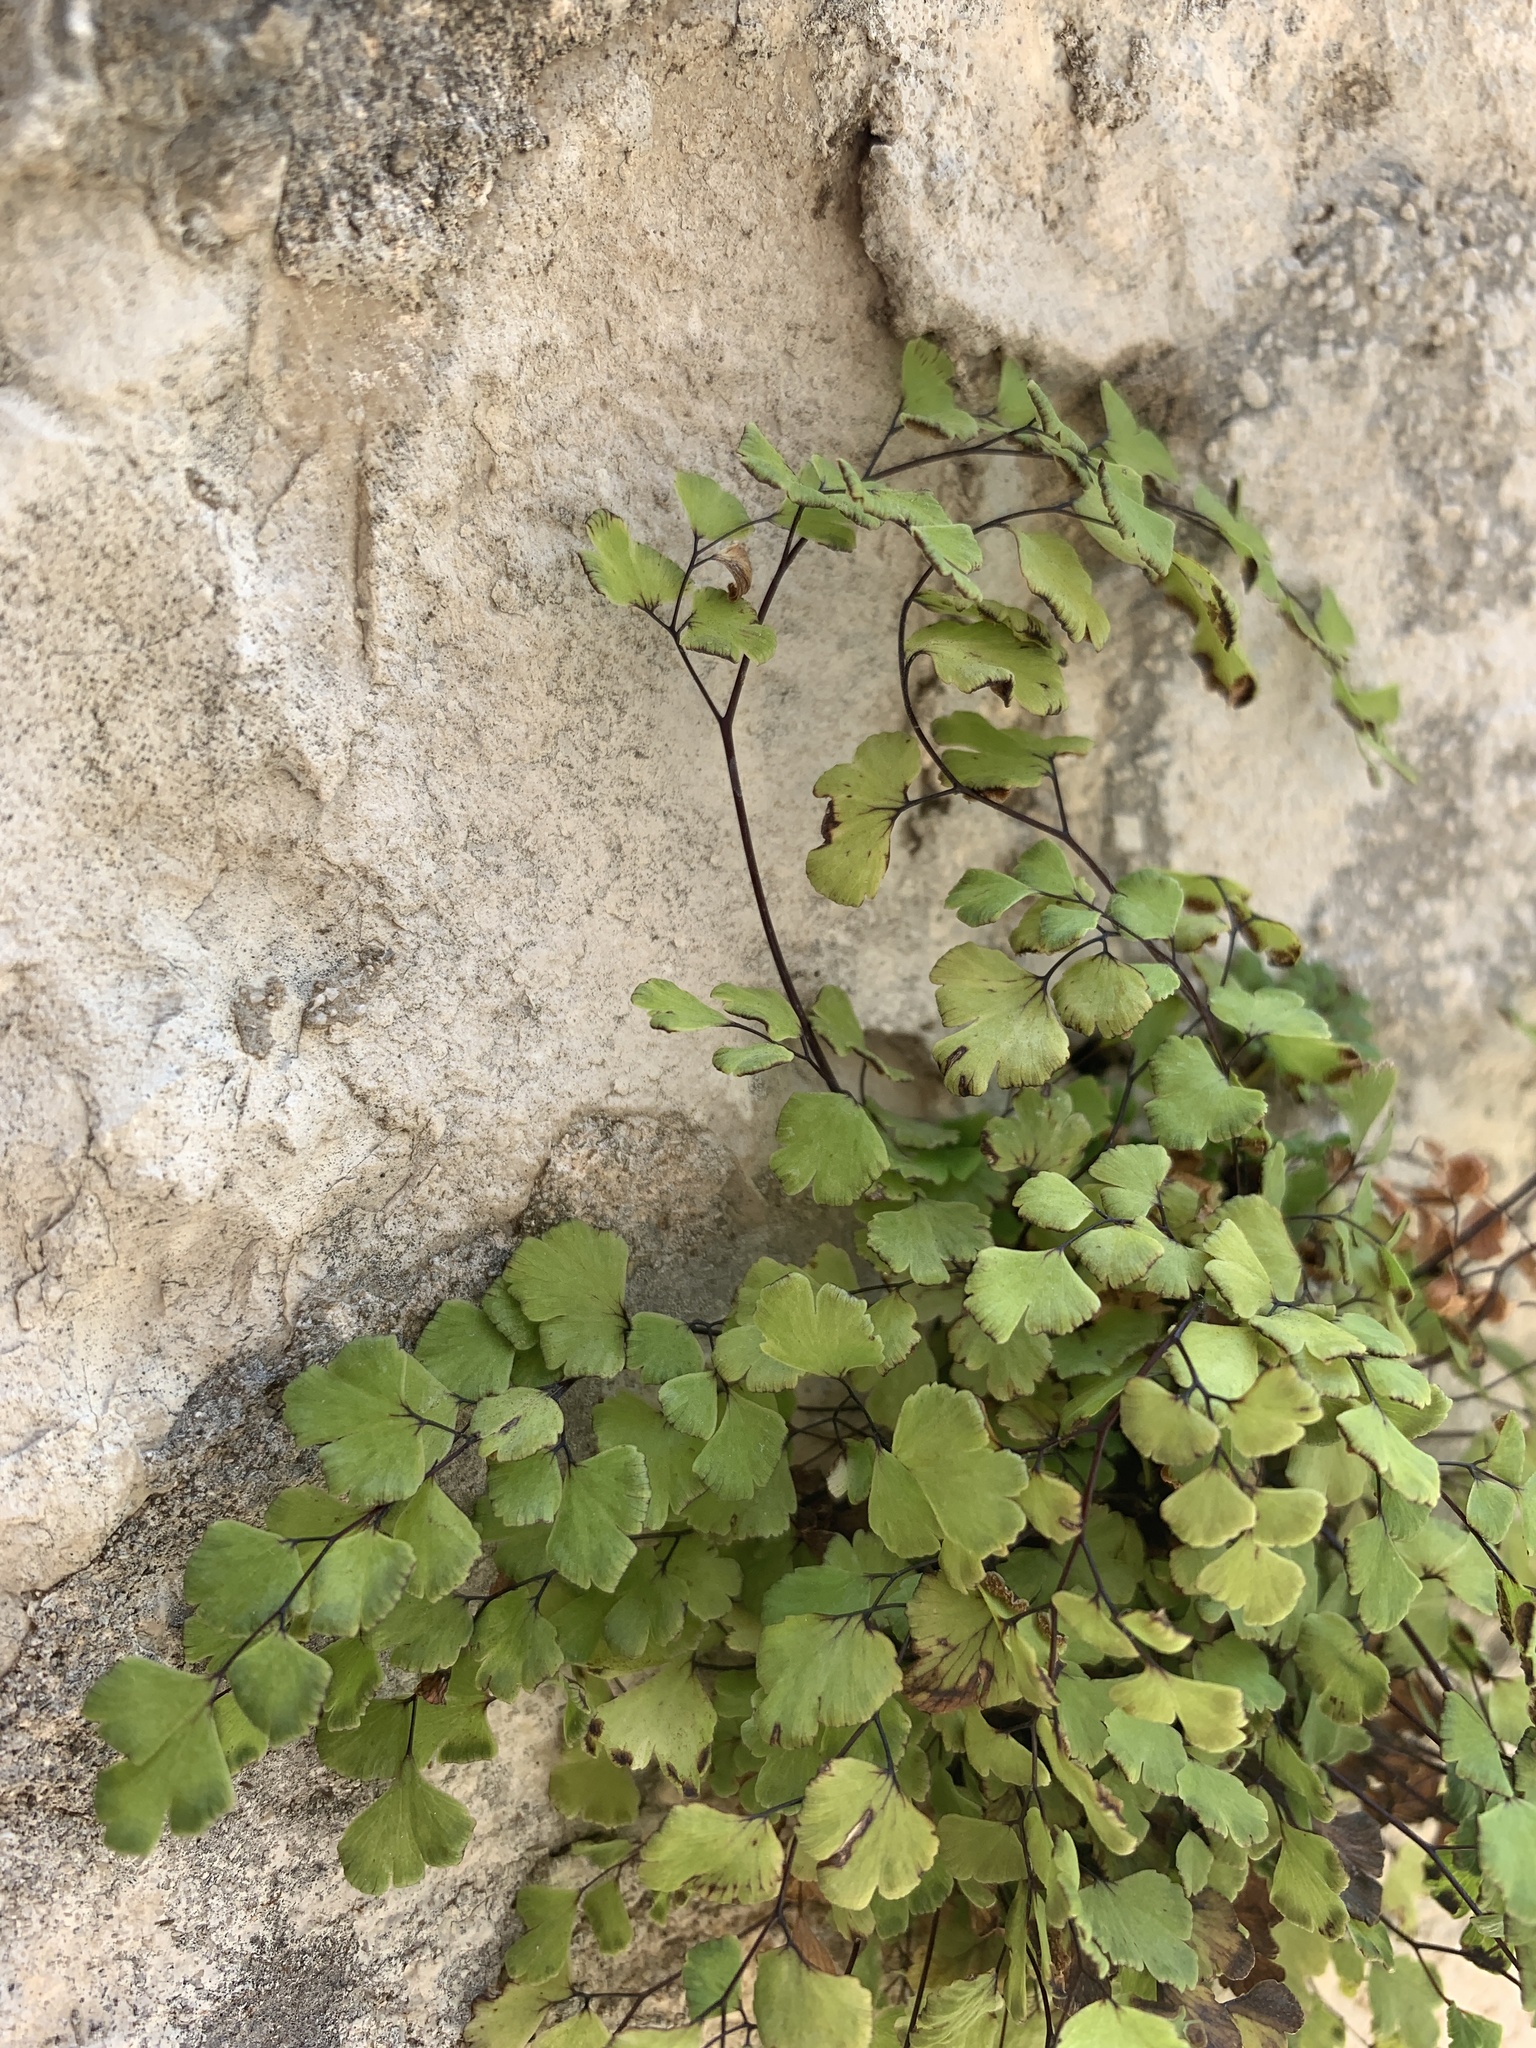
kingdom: Plantae
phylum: Tracheophyta
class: Polypodiopsida
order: Polypodiales
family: Pteridaceae
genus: Adiantum
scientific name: Adiantum capillus-veneris
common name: Maidenhair fern
